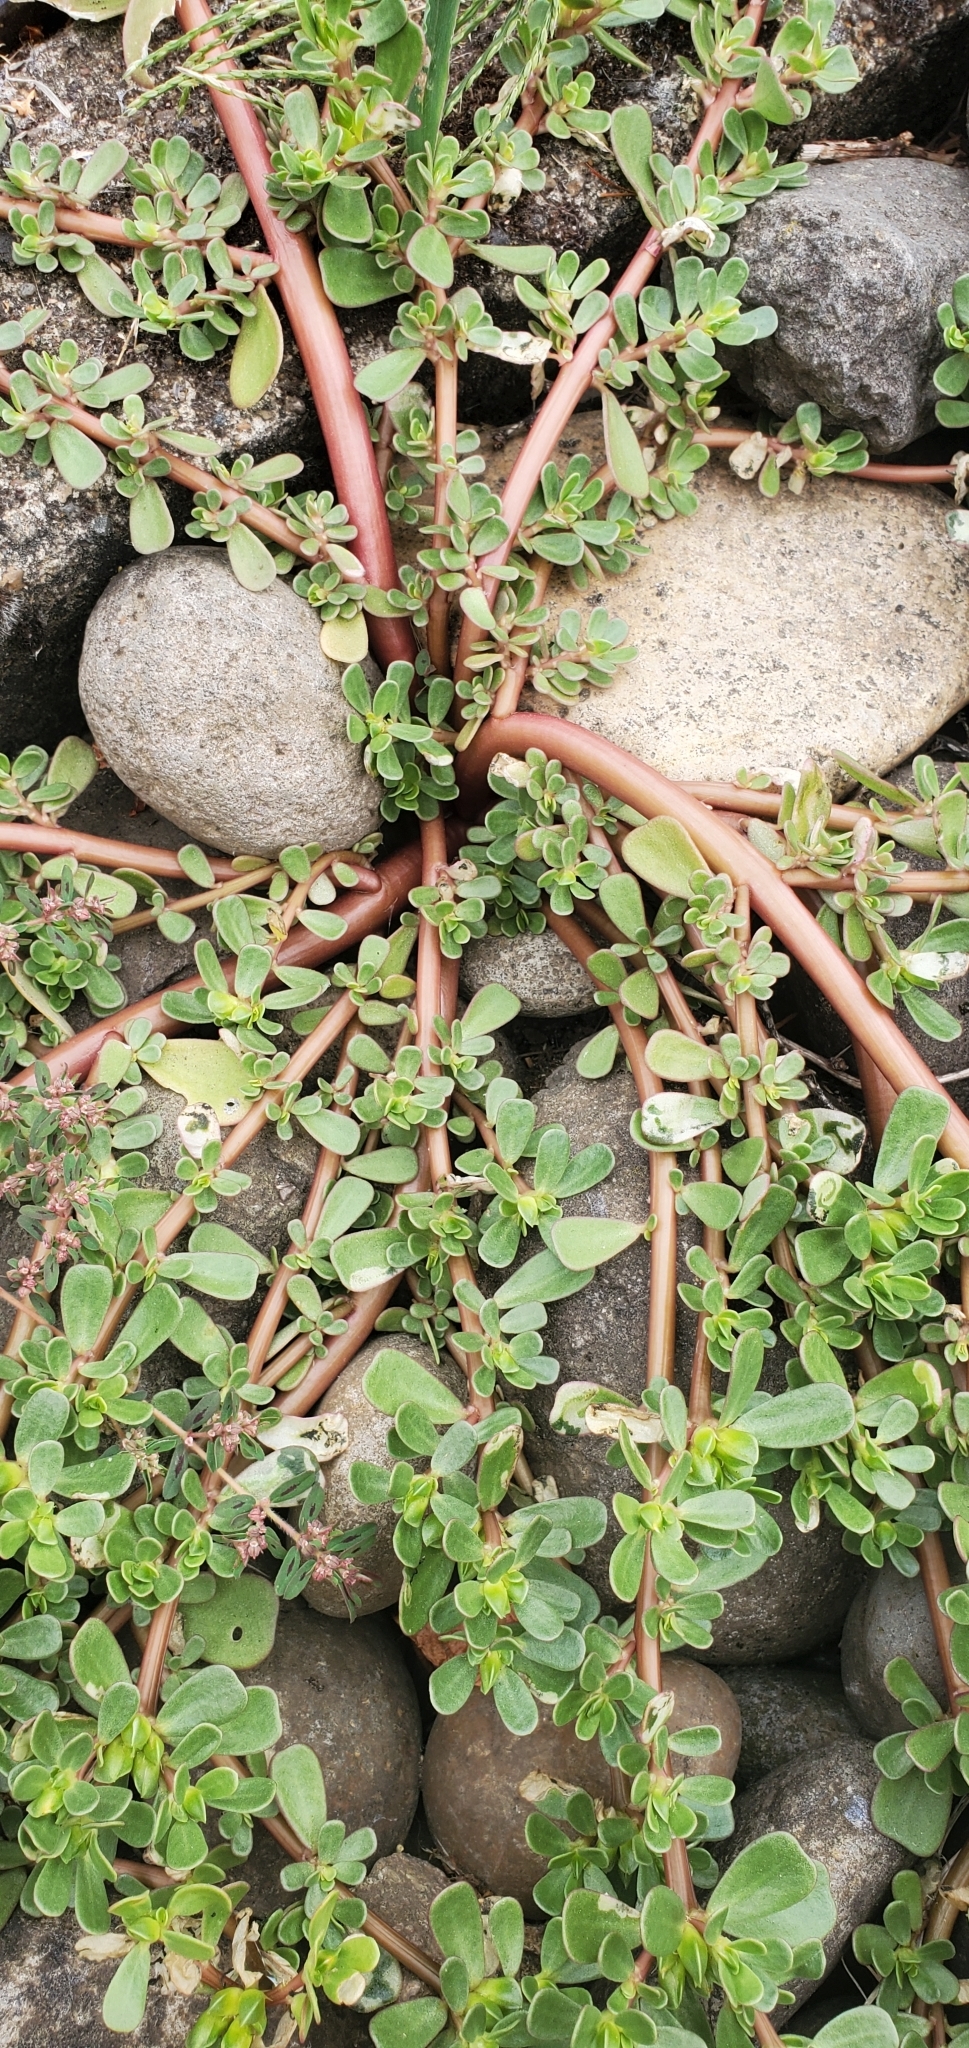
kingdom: Plantae
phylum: Tracheophyta
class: Magnoliopsida
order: Caryophyllales
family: Portulacaceae
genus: Portulaca
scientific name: Portulaca oleracea
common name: Common purslane
